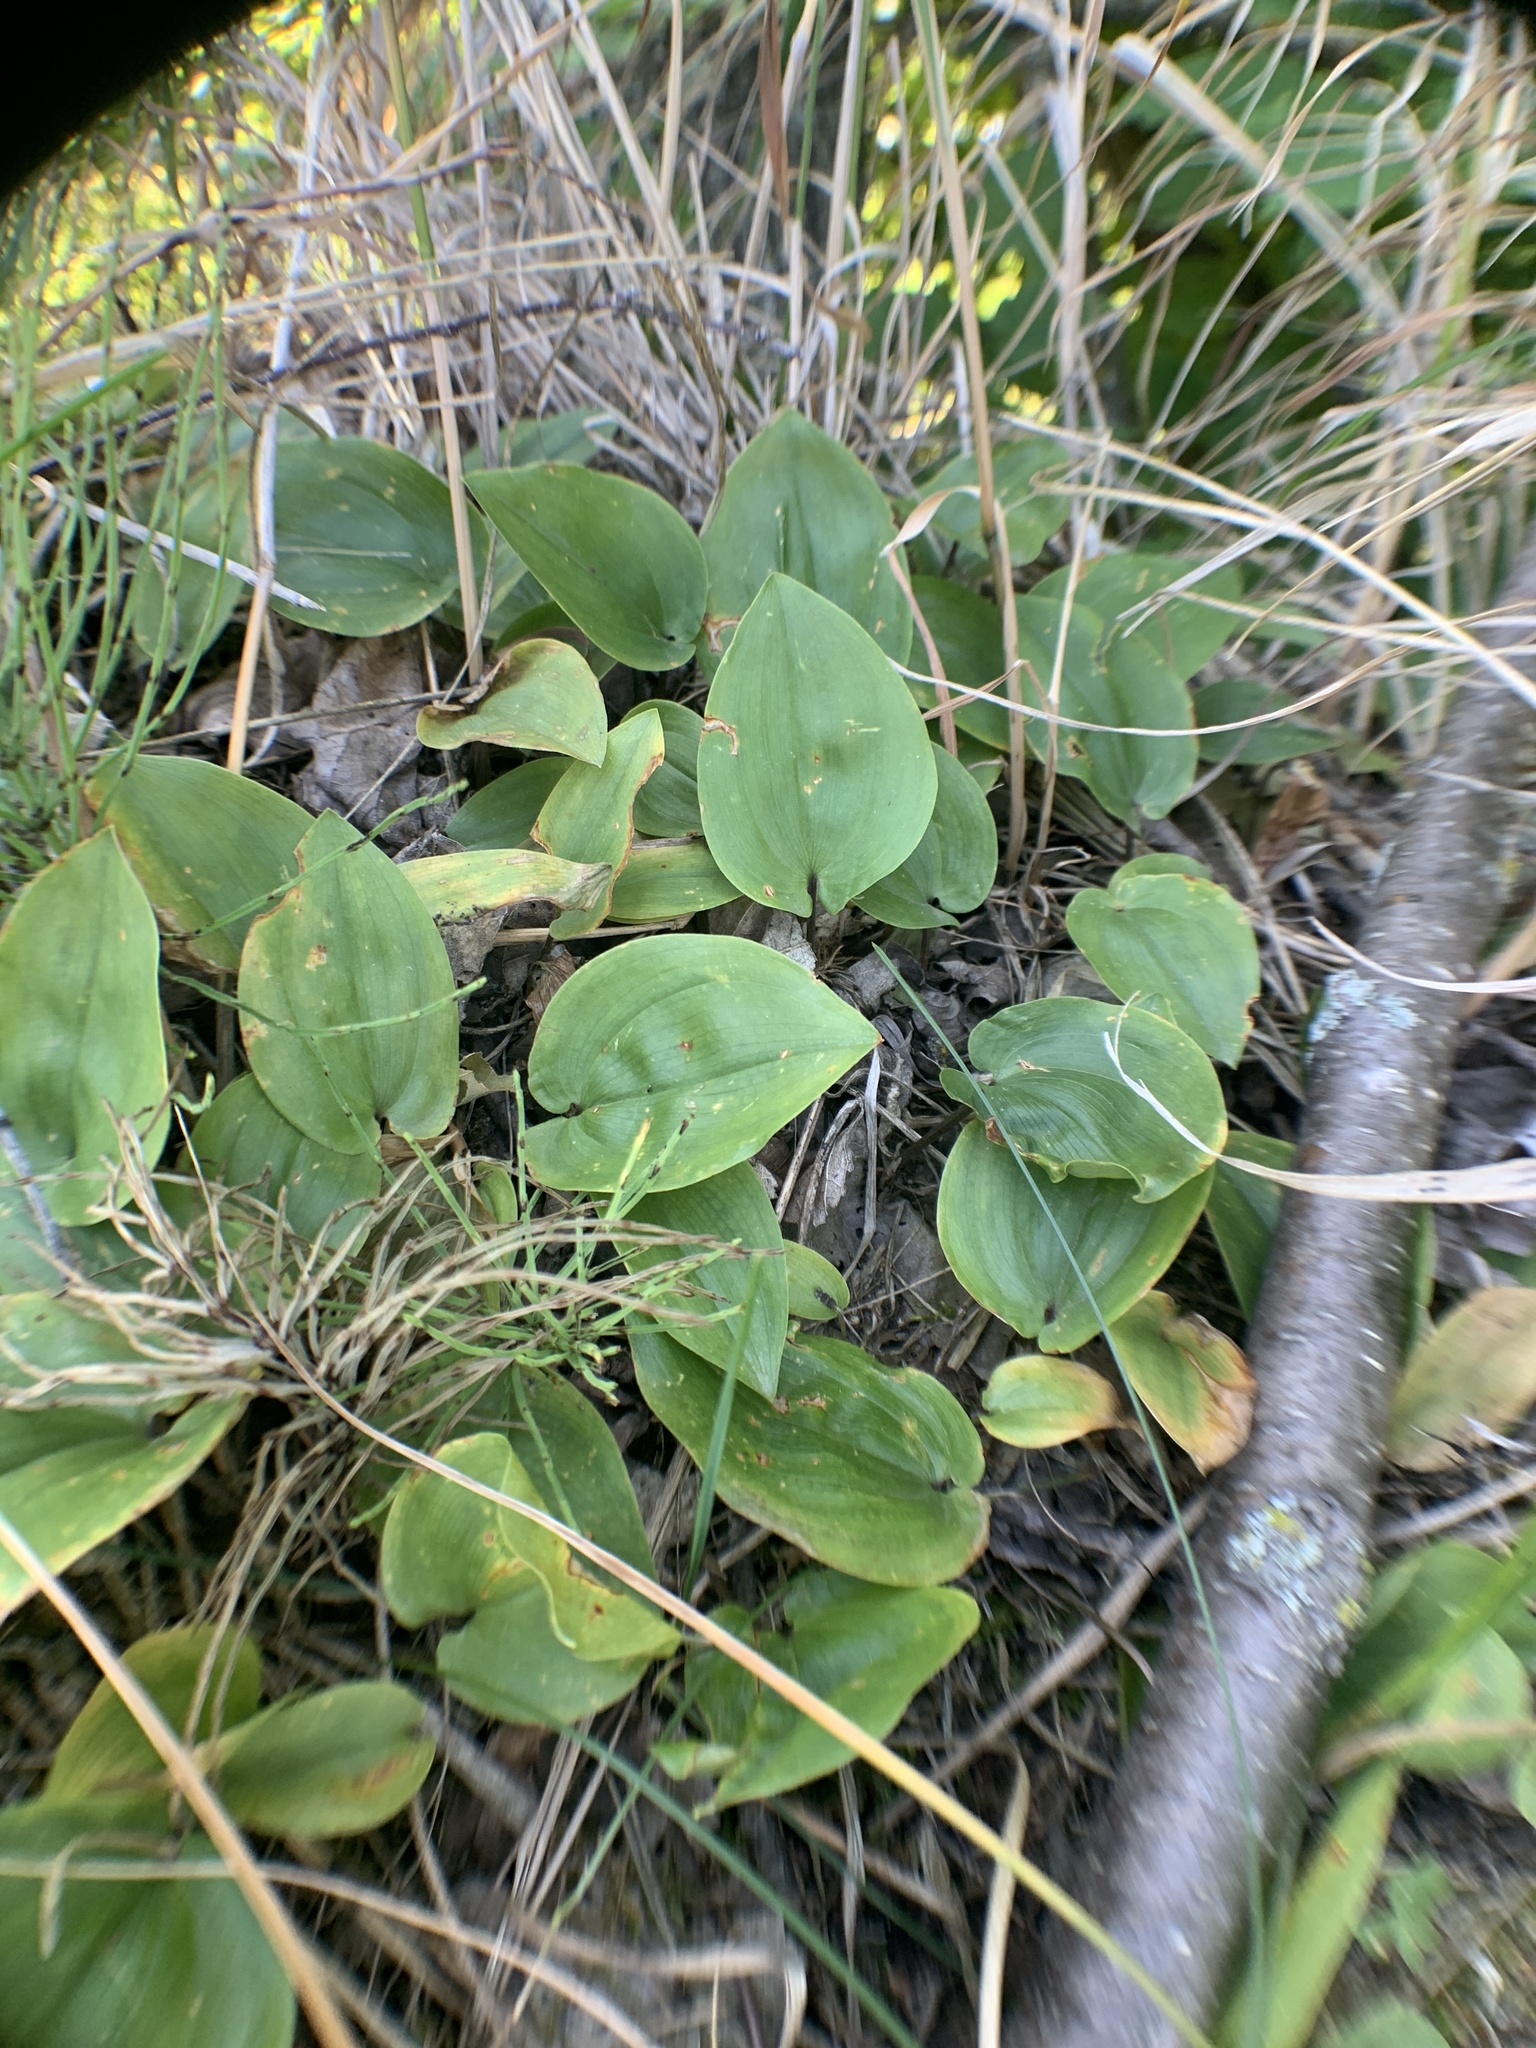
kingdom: Plantae
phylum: Tracheophyta
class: Liliopsida
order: Asparagales
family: Asparagaceae
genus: Maianthemum
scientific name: Maianthemum canadense
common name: False lily-of-the-valley
